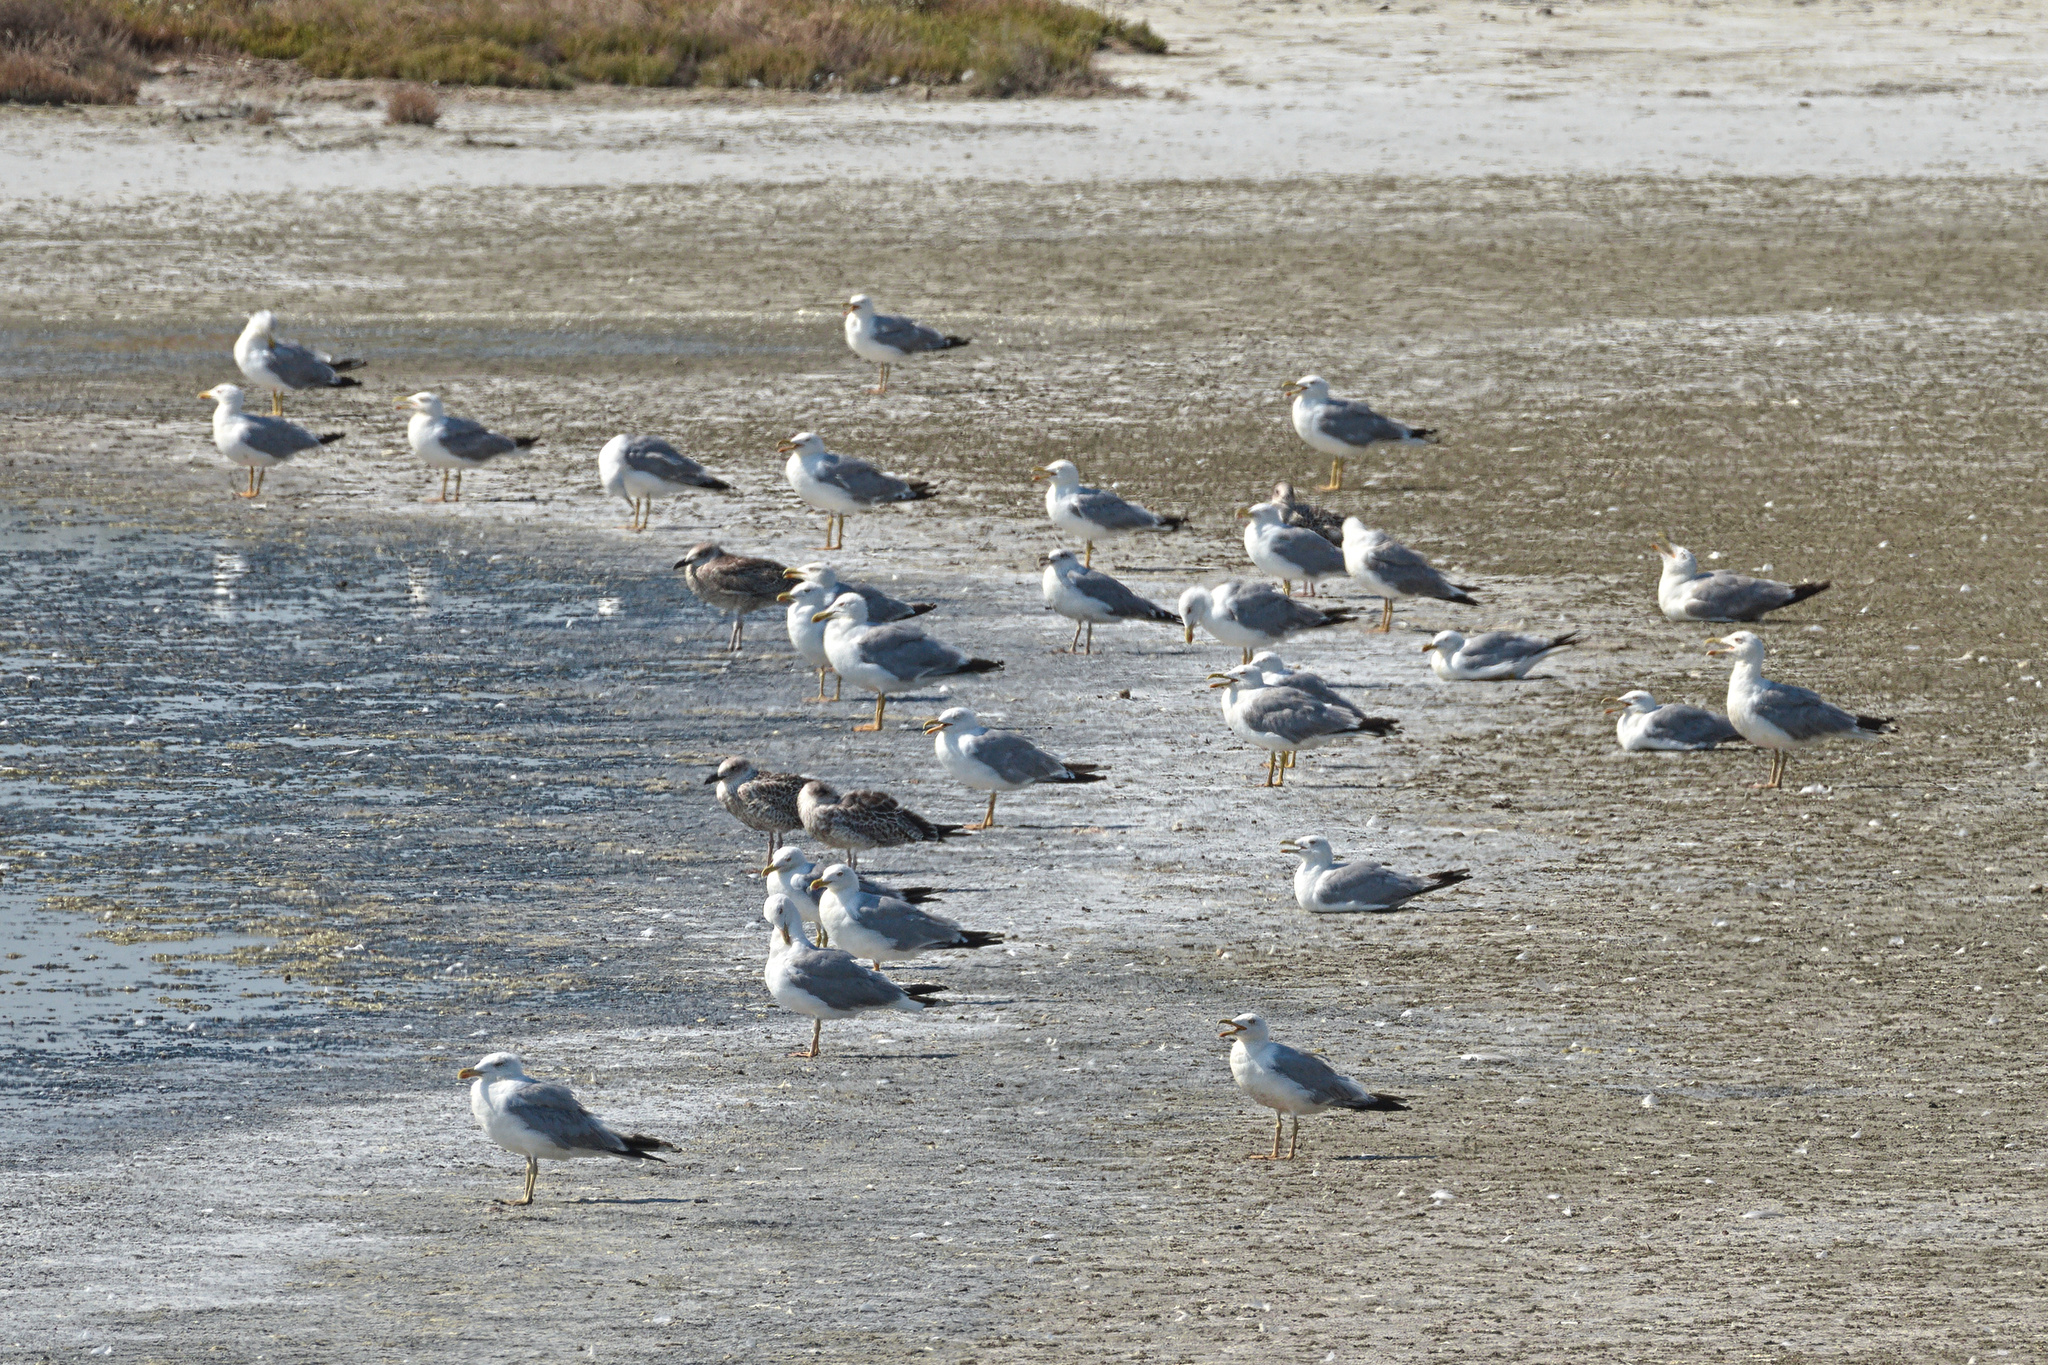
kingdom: Animalia
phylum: Chordata
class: Aves
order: Charadriiformes
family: Laridae
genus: Larus
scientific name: Larus michahellis
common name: Yellow-legged gull
